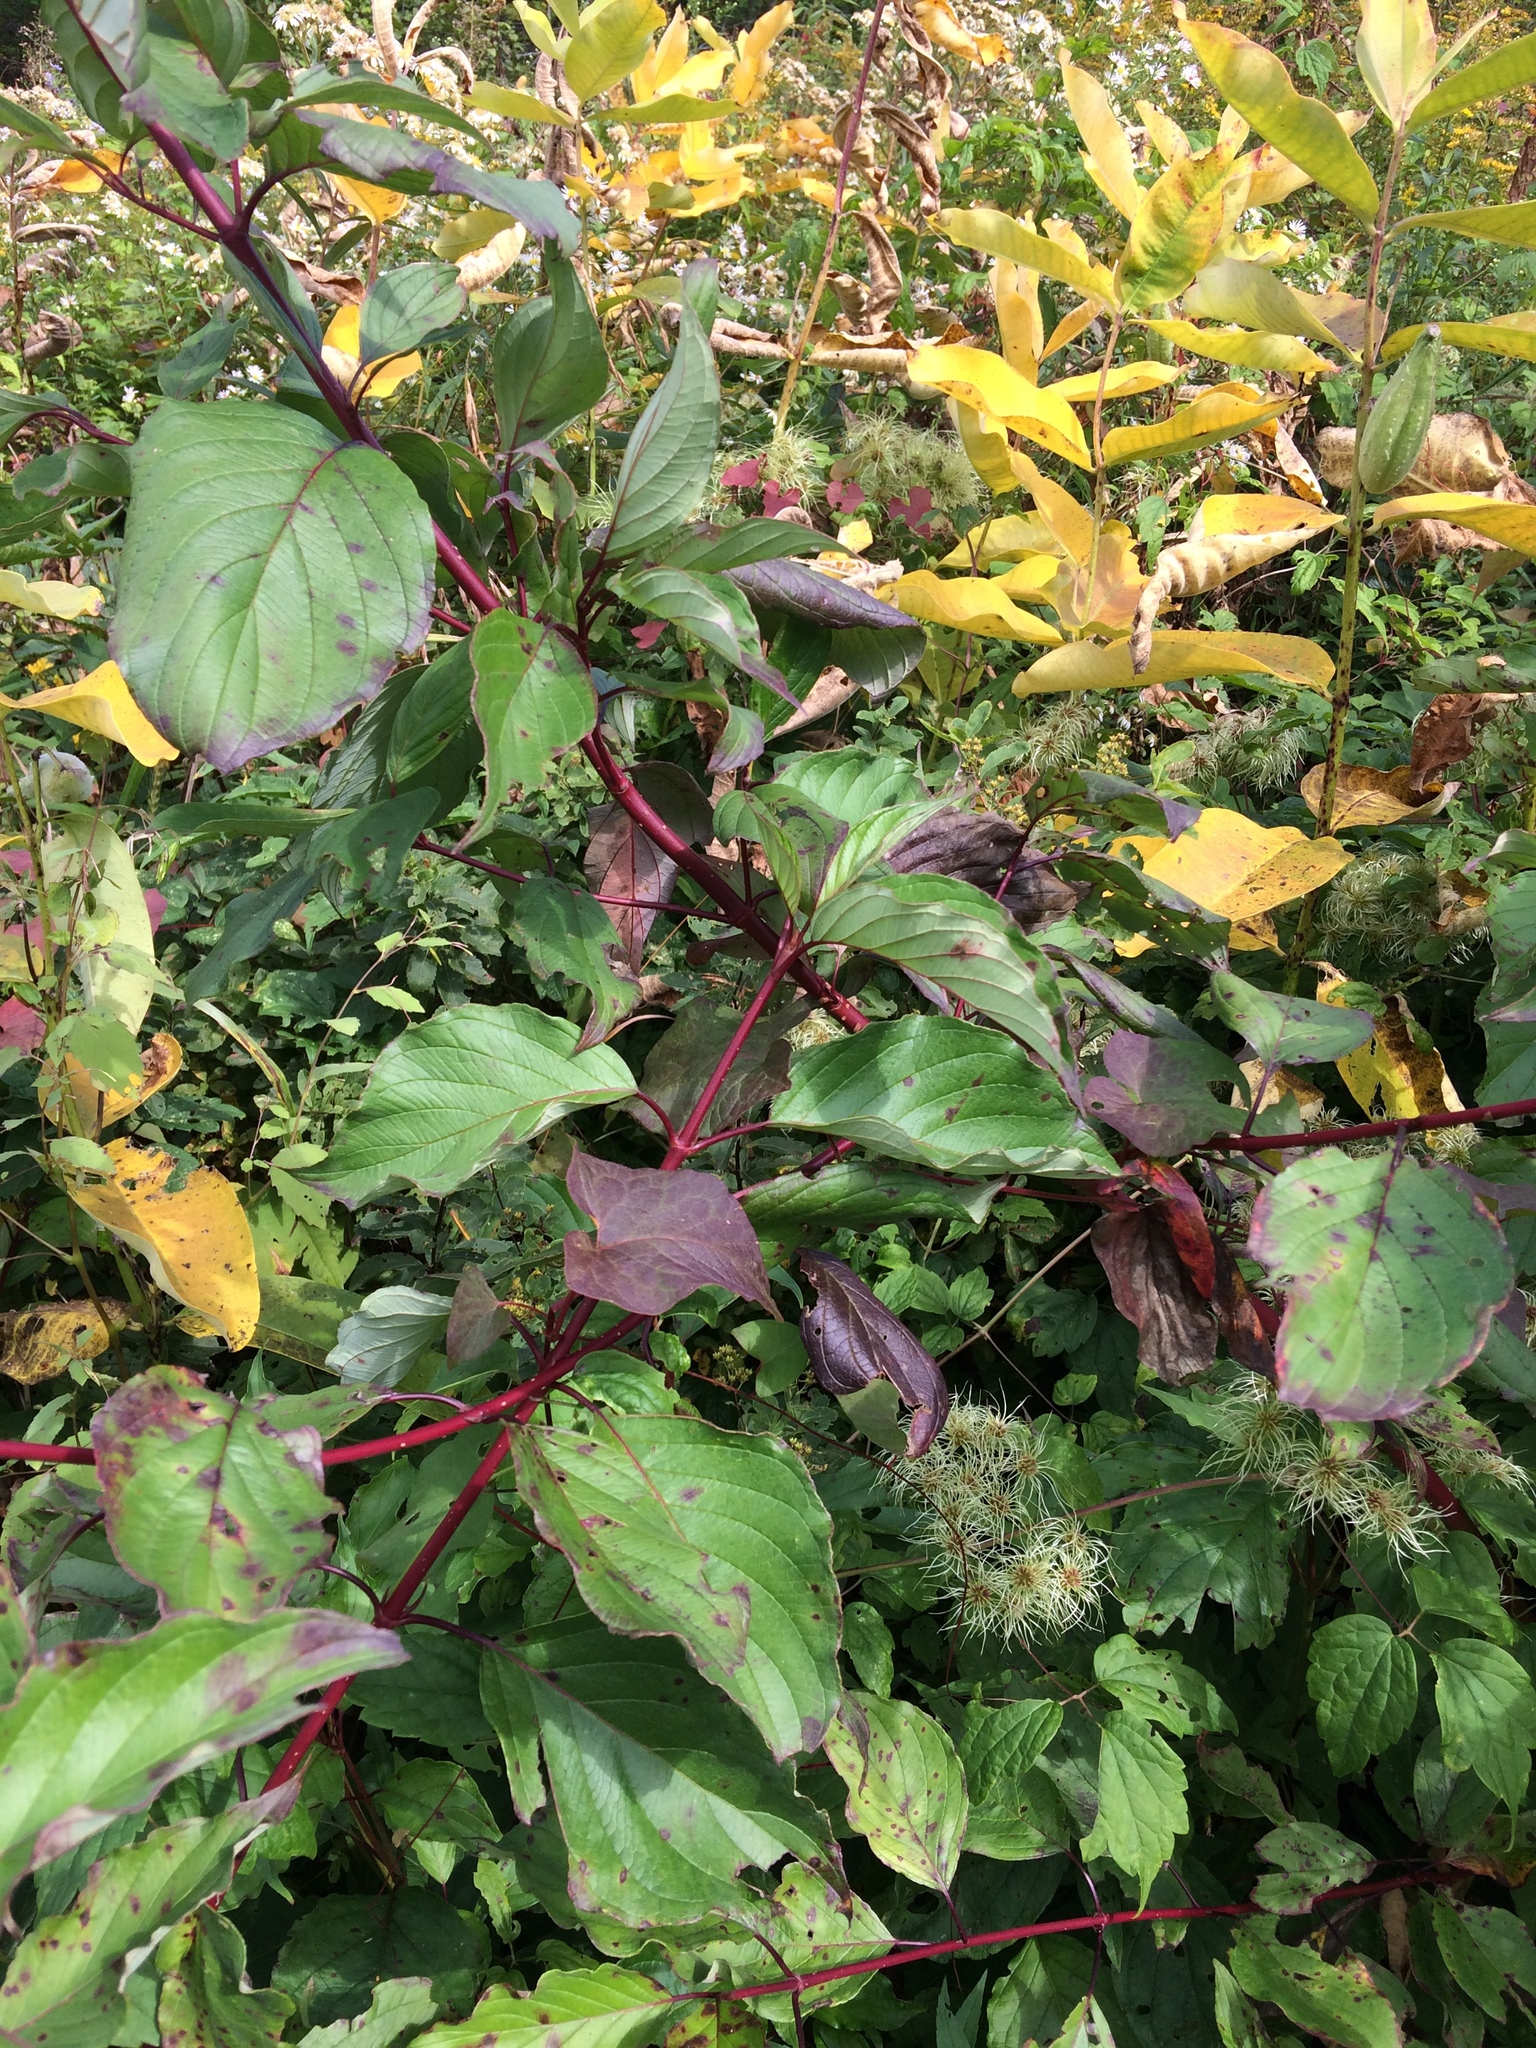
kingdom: Plantae
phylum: Tracheophyta
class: Magnoliopsida
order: Cornales
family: Cornaceae
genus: Cornus
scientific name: Cornus sericea
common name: Red-osier dogwood
